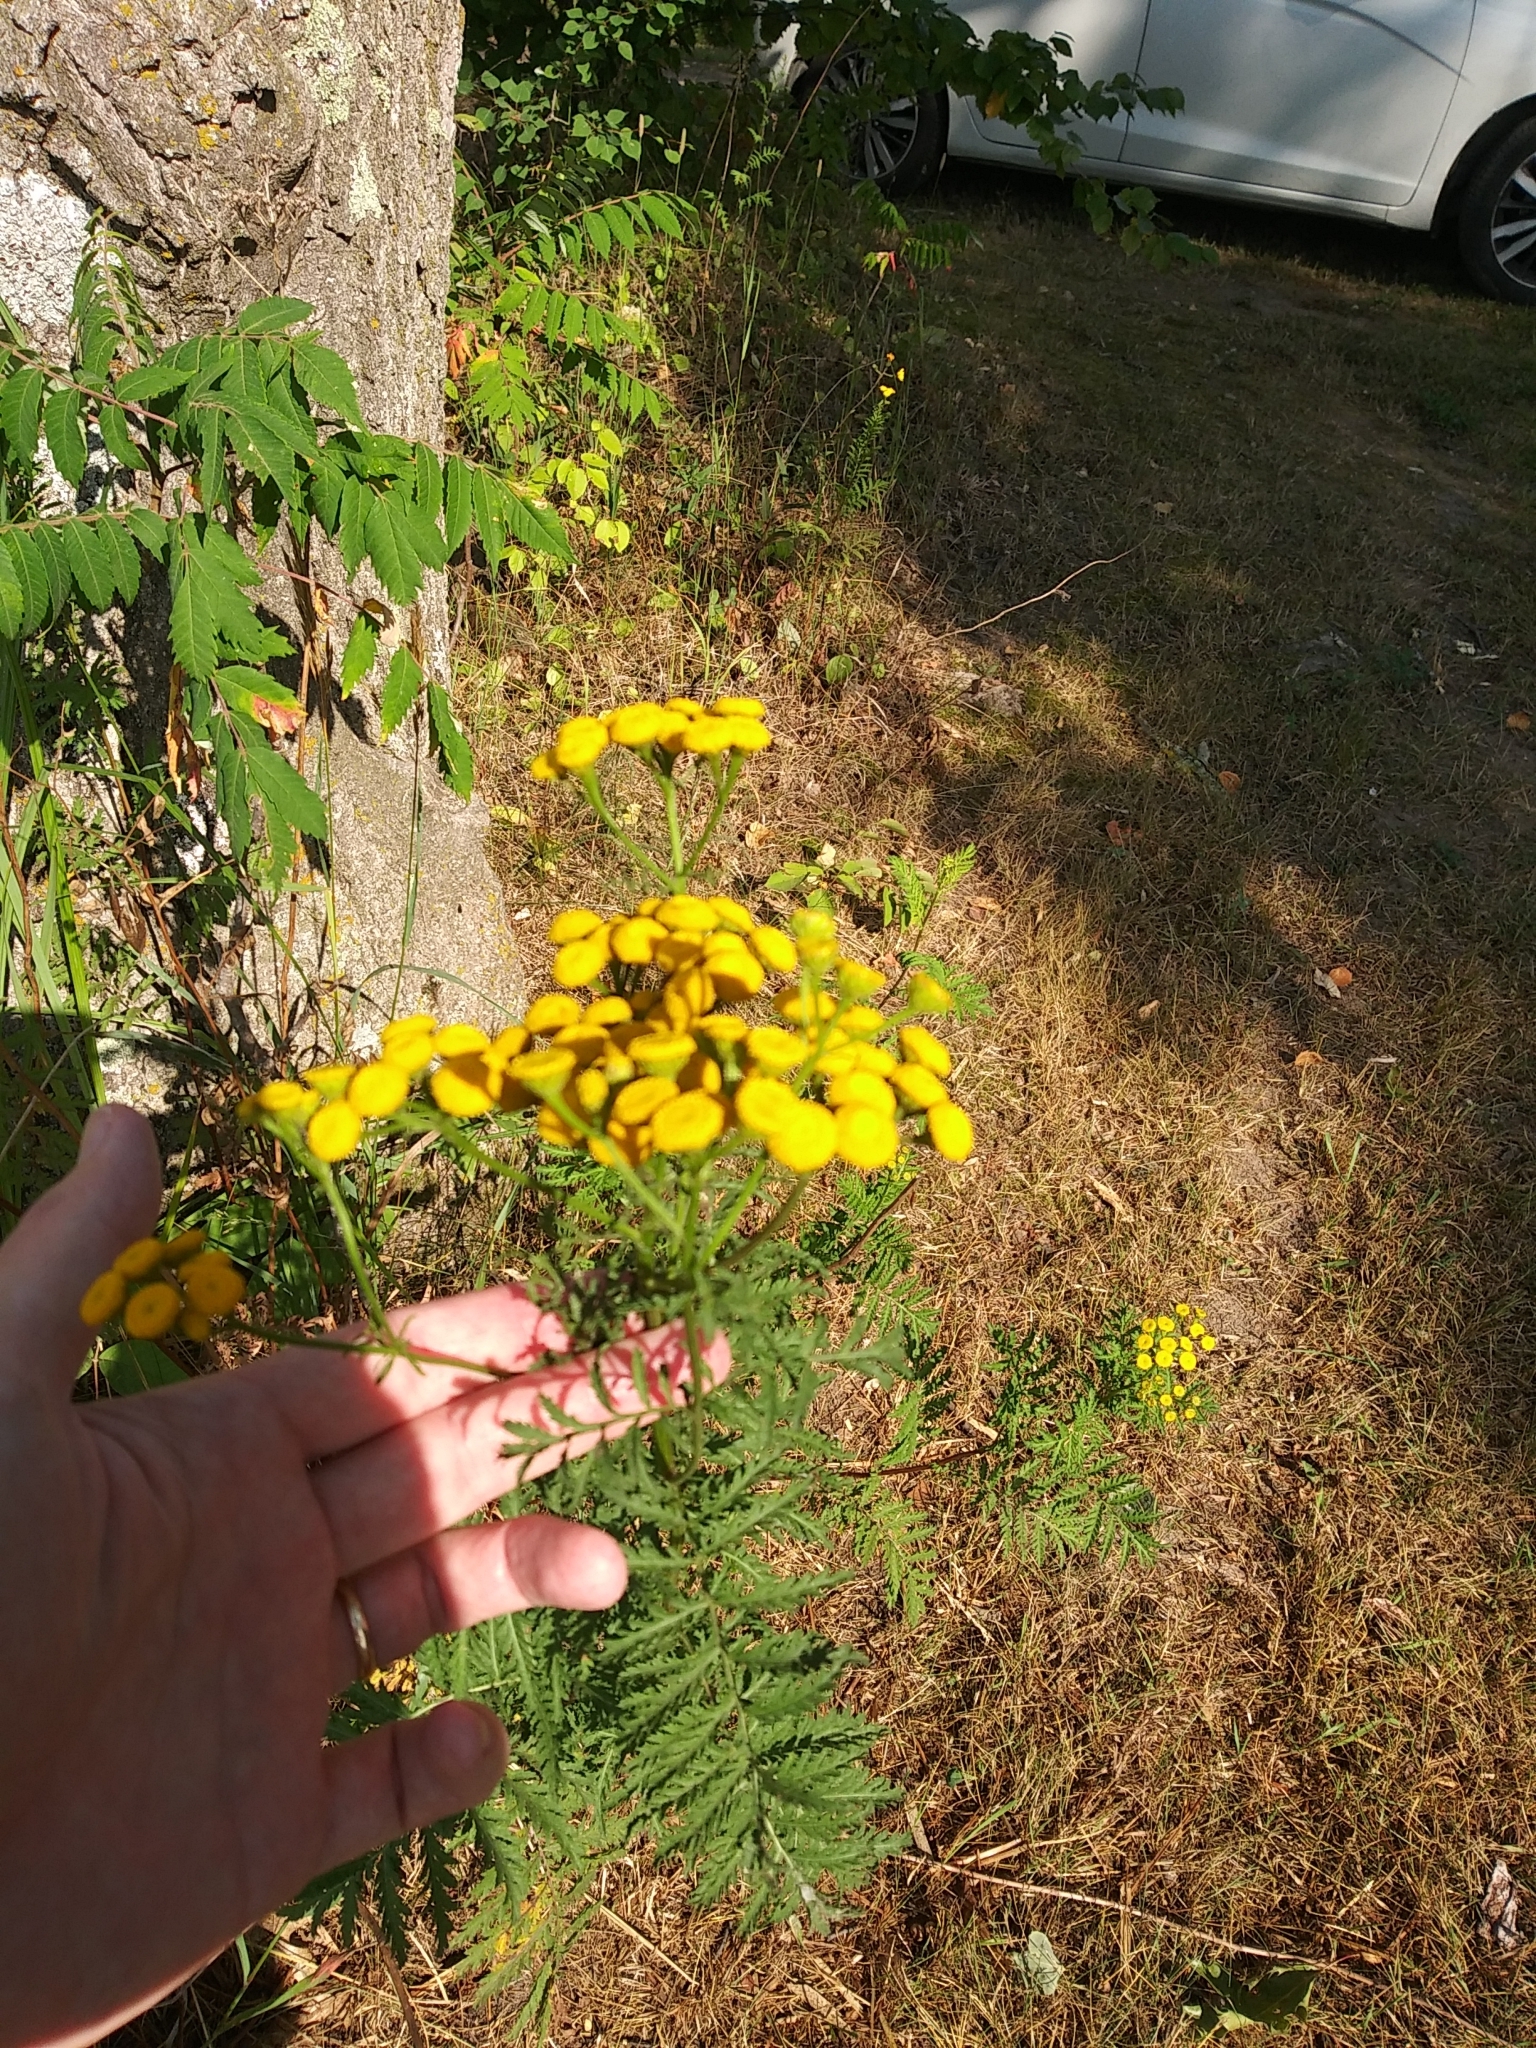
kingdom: Plantae
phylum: Tracheophyta
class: Magnoliopsida
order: Asterales
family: Asteraceae
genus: Tanacetum
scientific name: Tanacetum vulgare
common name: Common tansy
